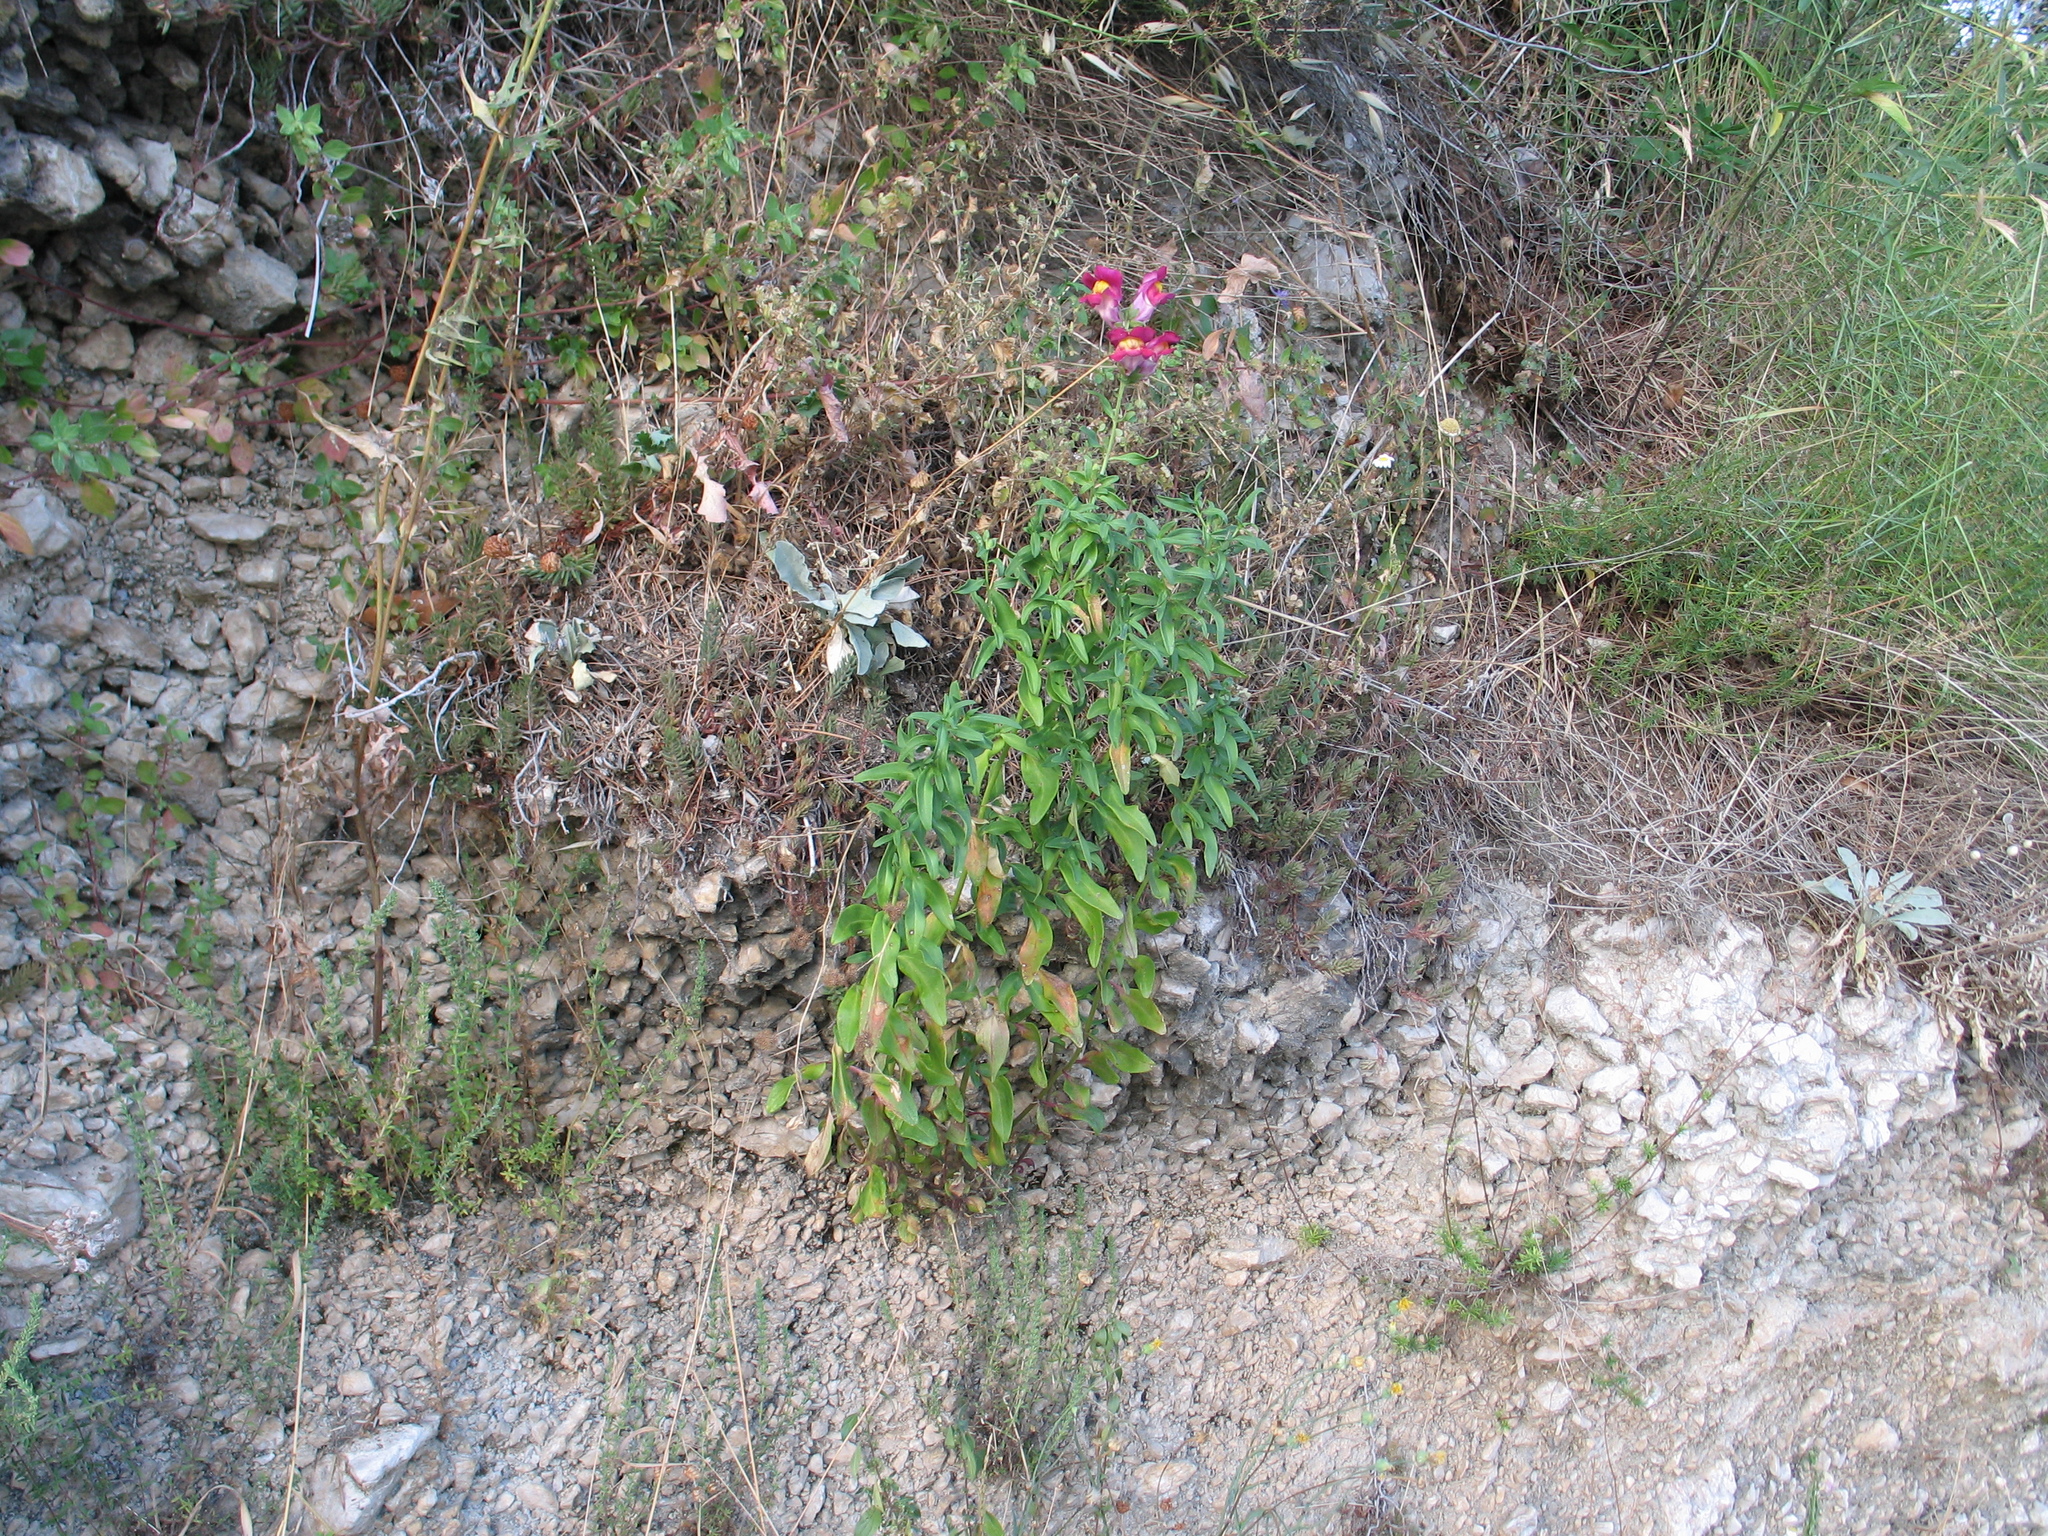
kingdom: Plantae
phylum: Tracheophyta
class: Magnoliopsida
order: Lamiales
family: Plantaginaceae
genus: Antirrhinum
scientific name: Antirrhinum majus
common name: Snapdragon
